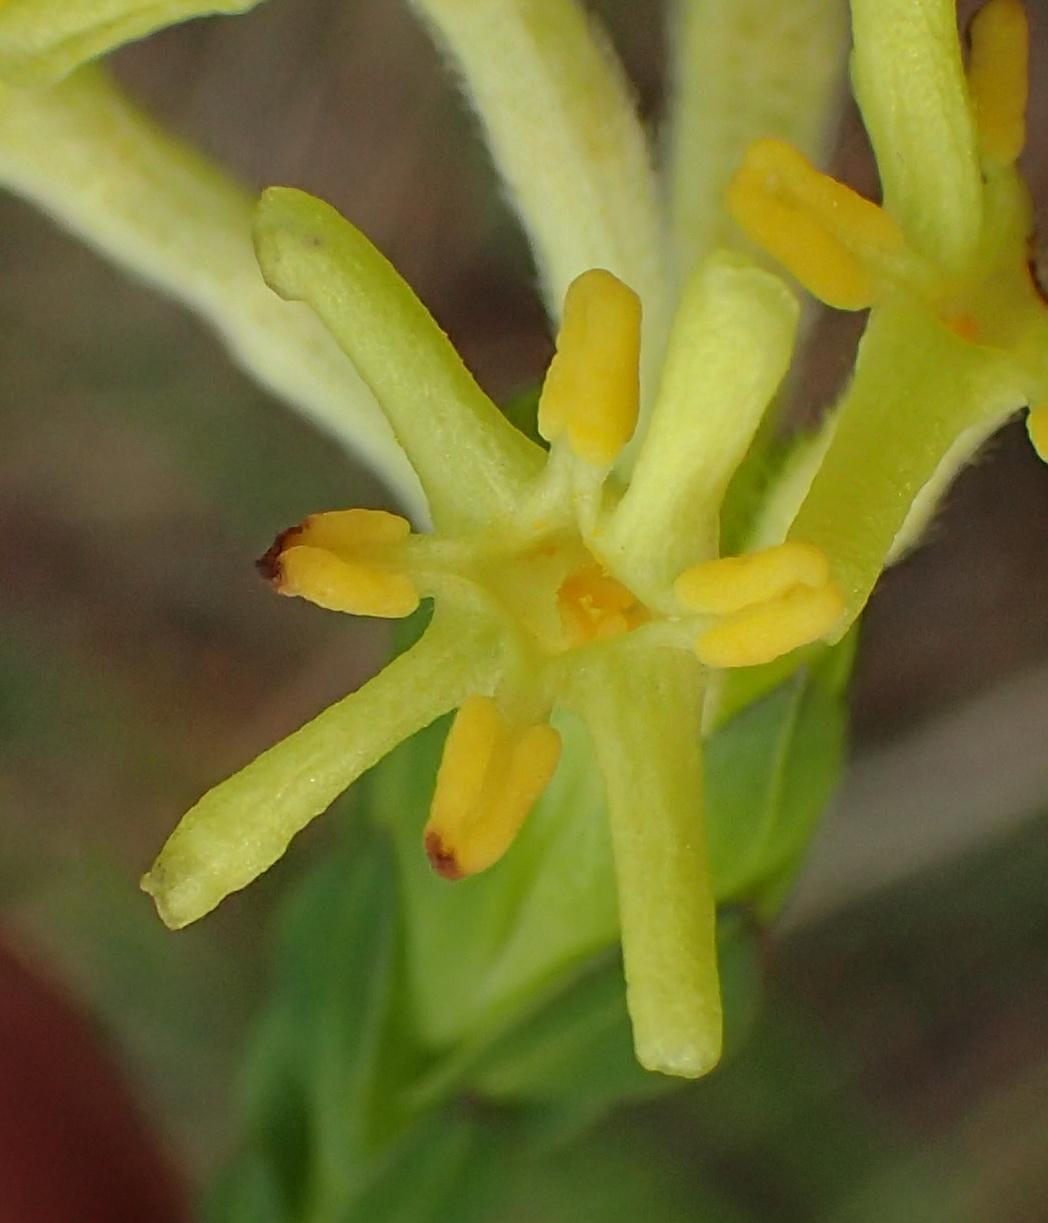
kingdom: Plantae
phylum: Tracheophyta
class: Magnoliopsida
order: Malvales
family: Thymelaeaceae
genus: Gnidia
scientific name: Gnidia oppositifolia
